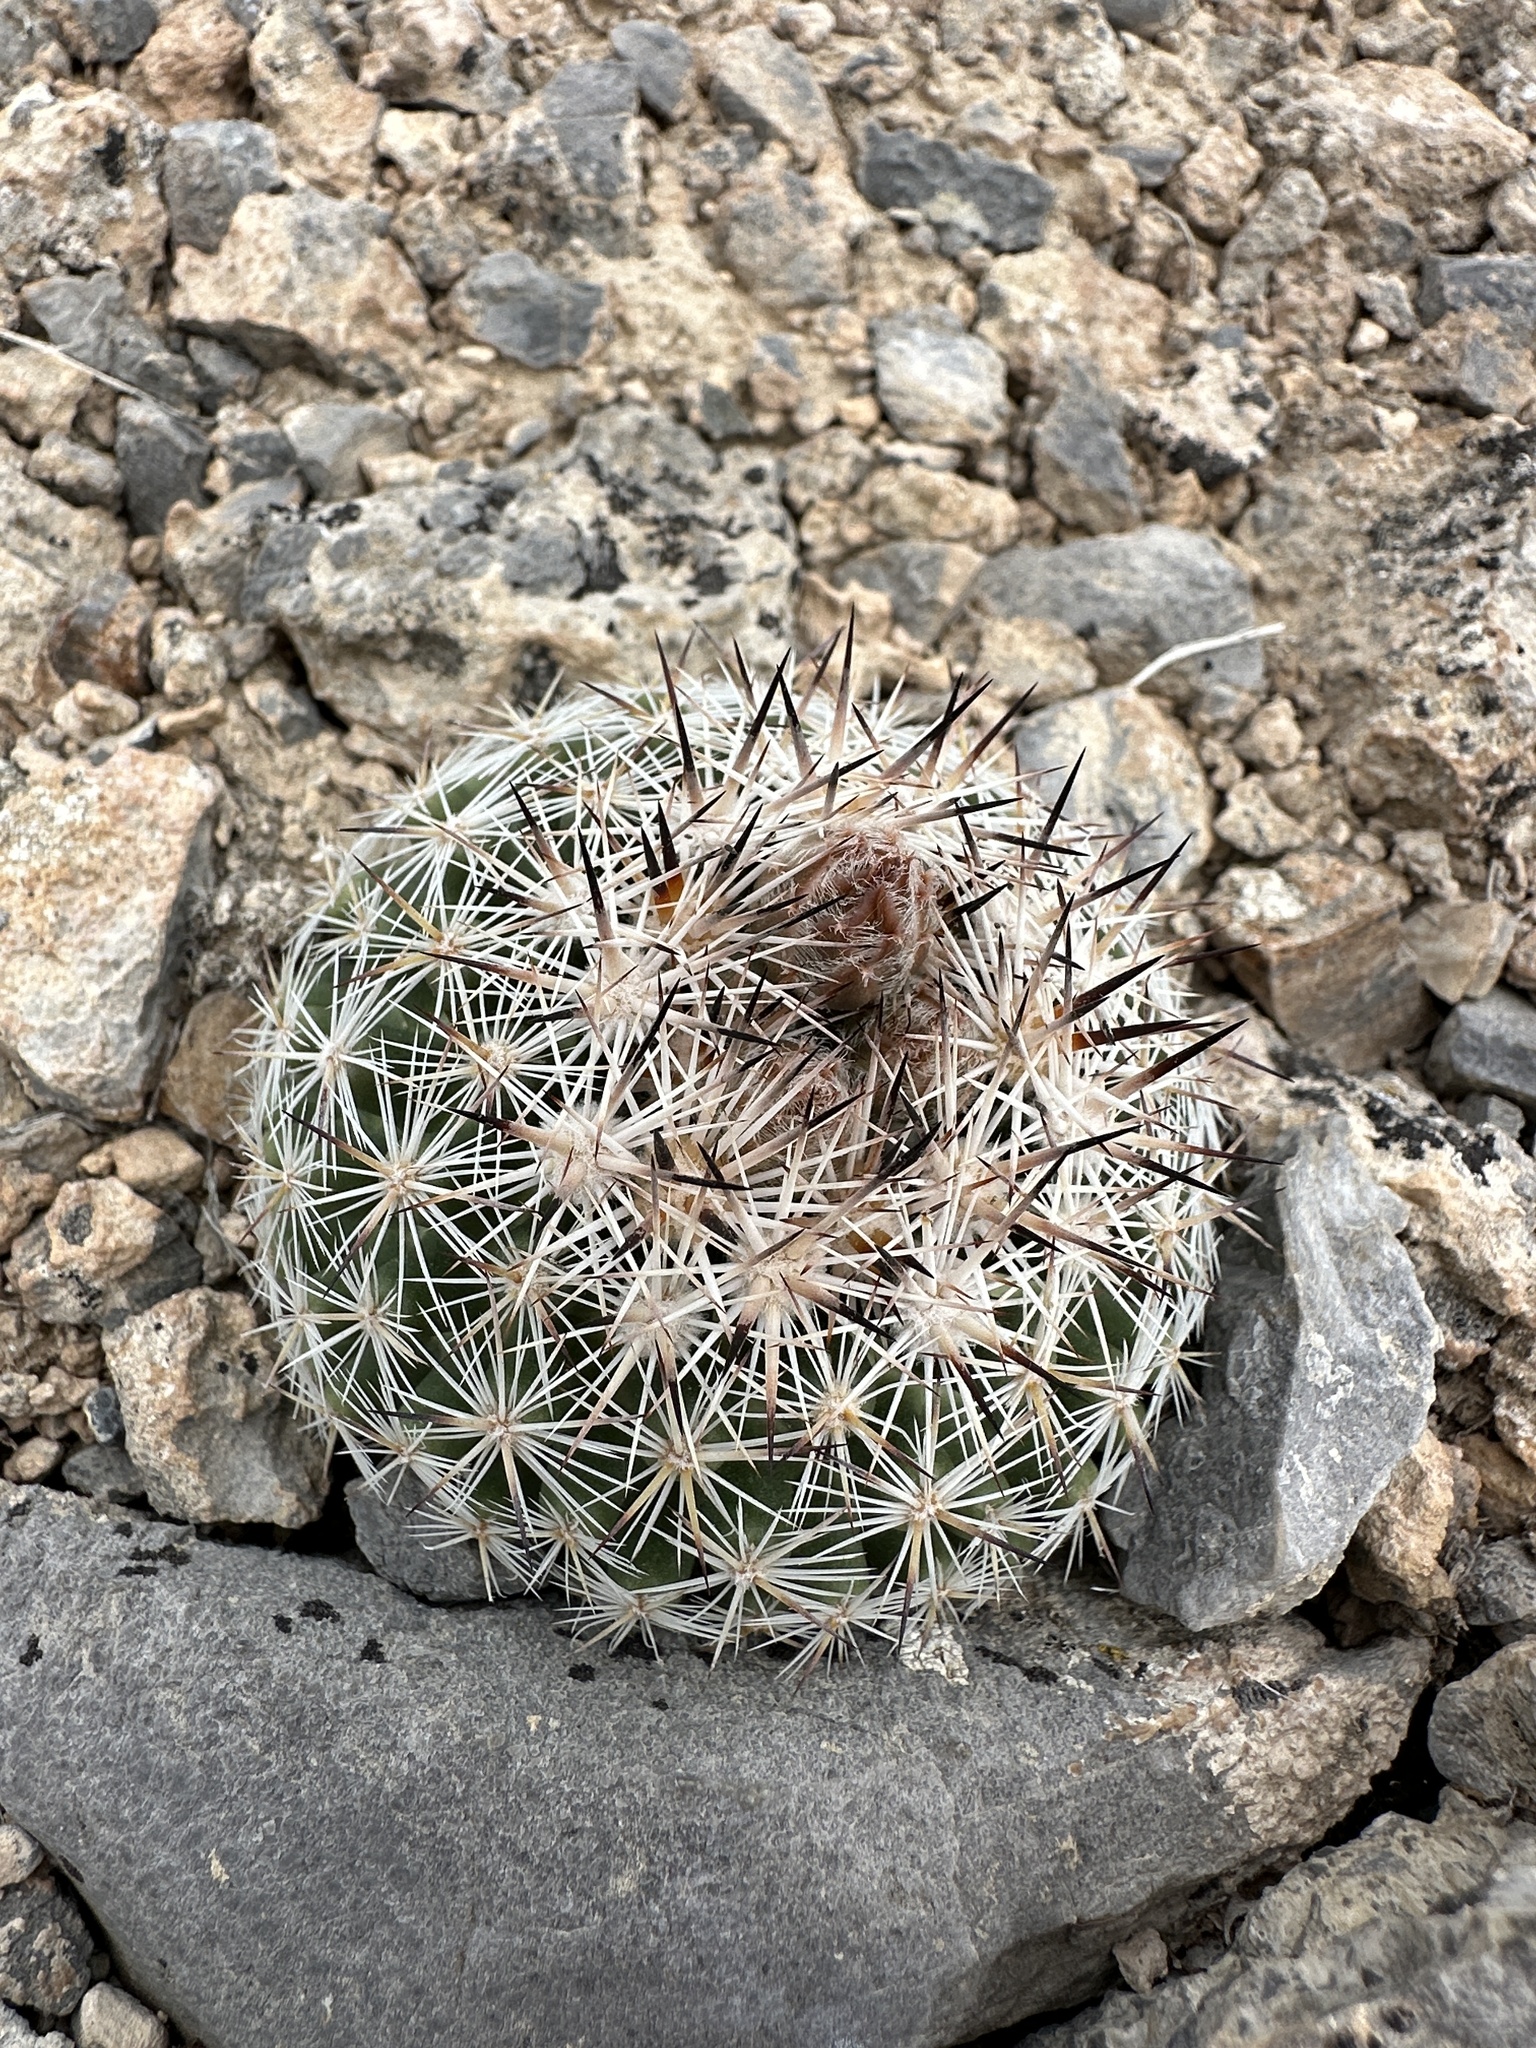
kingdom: Plantae
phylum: Tracheophyta
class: Magnoliopsida
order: Caryophyllales
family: Cactaceae
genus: Pelecyphora
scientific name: Pelecyphora vivipara
